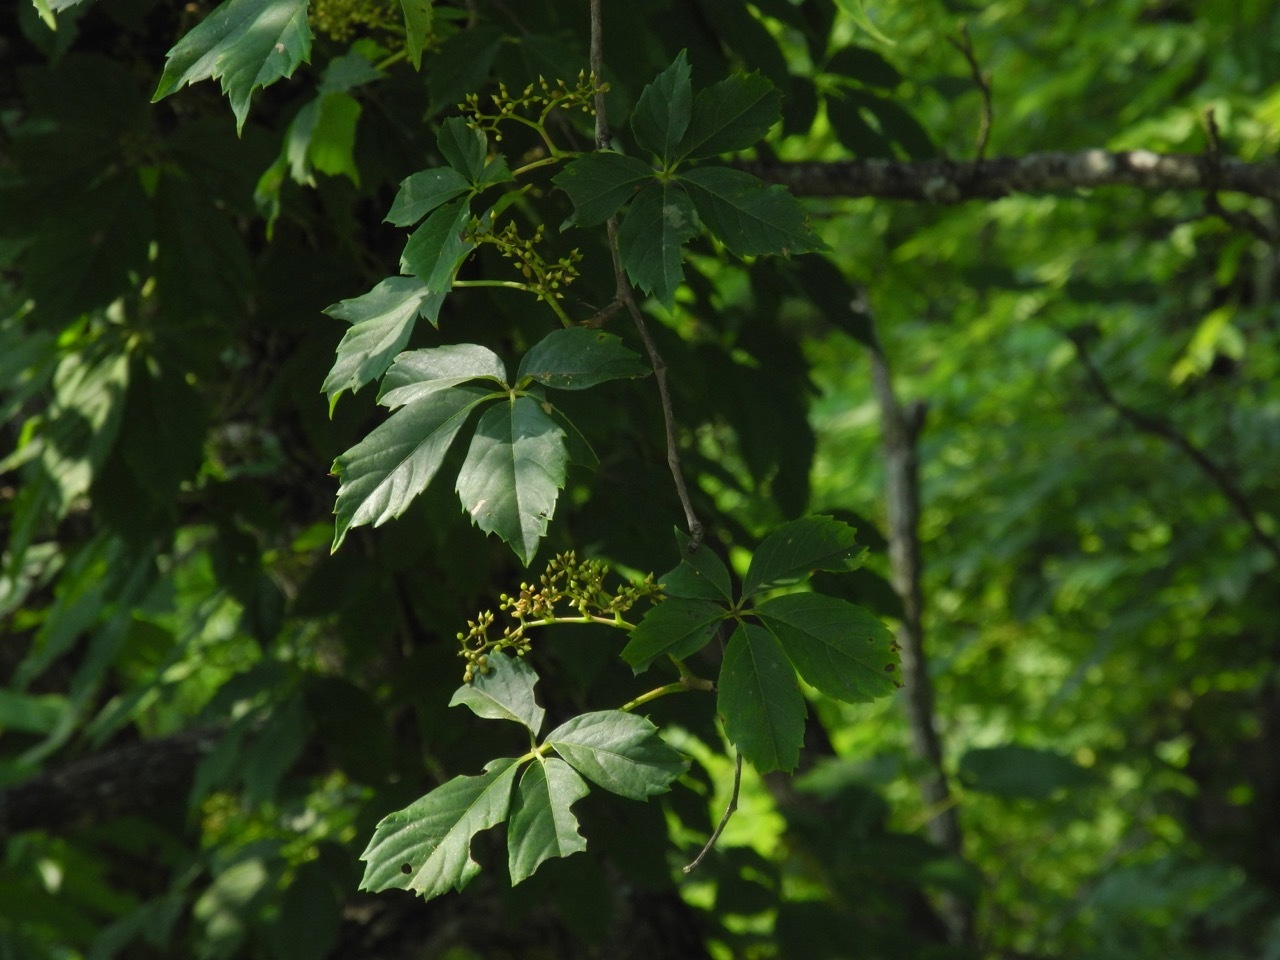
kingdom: Plantae
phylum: Tracheophyta
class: Magnoliopsida
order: Vitales
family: Vitaceae
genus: Parthenocissus
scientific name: Parthenocissus quinquefolia
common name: Virginia-creeper
